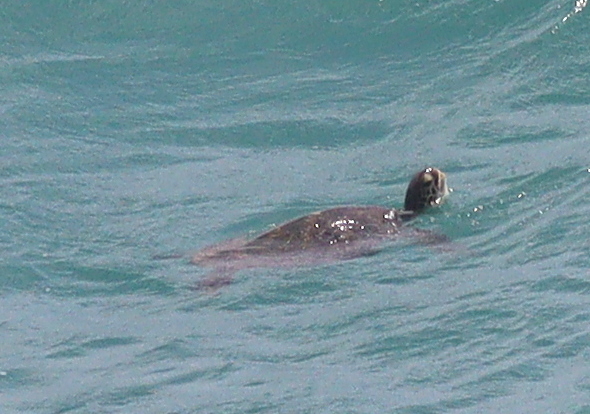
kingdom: Animalia
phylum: Chordata
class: Testudines
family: Cheloniidae
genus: Chelonia
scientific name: Chelonia mydas
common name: Green turtle
